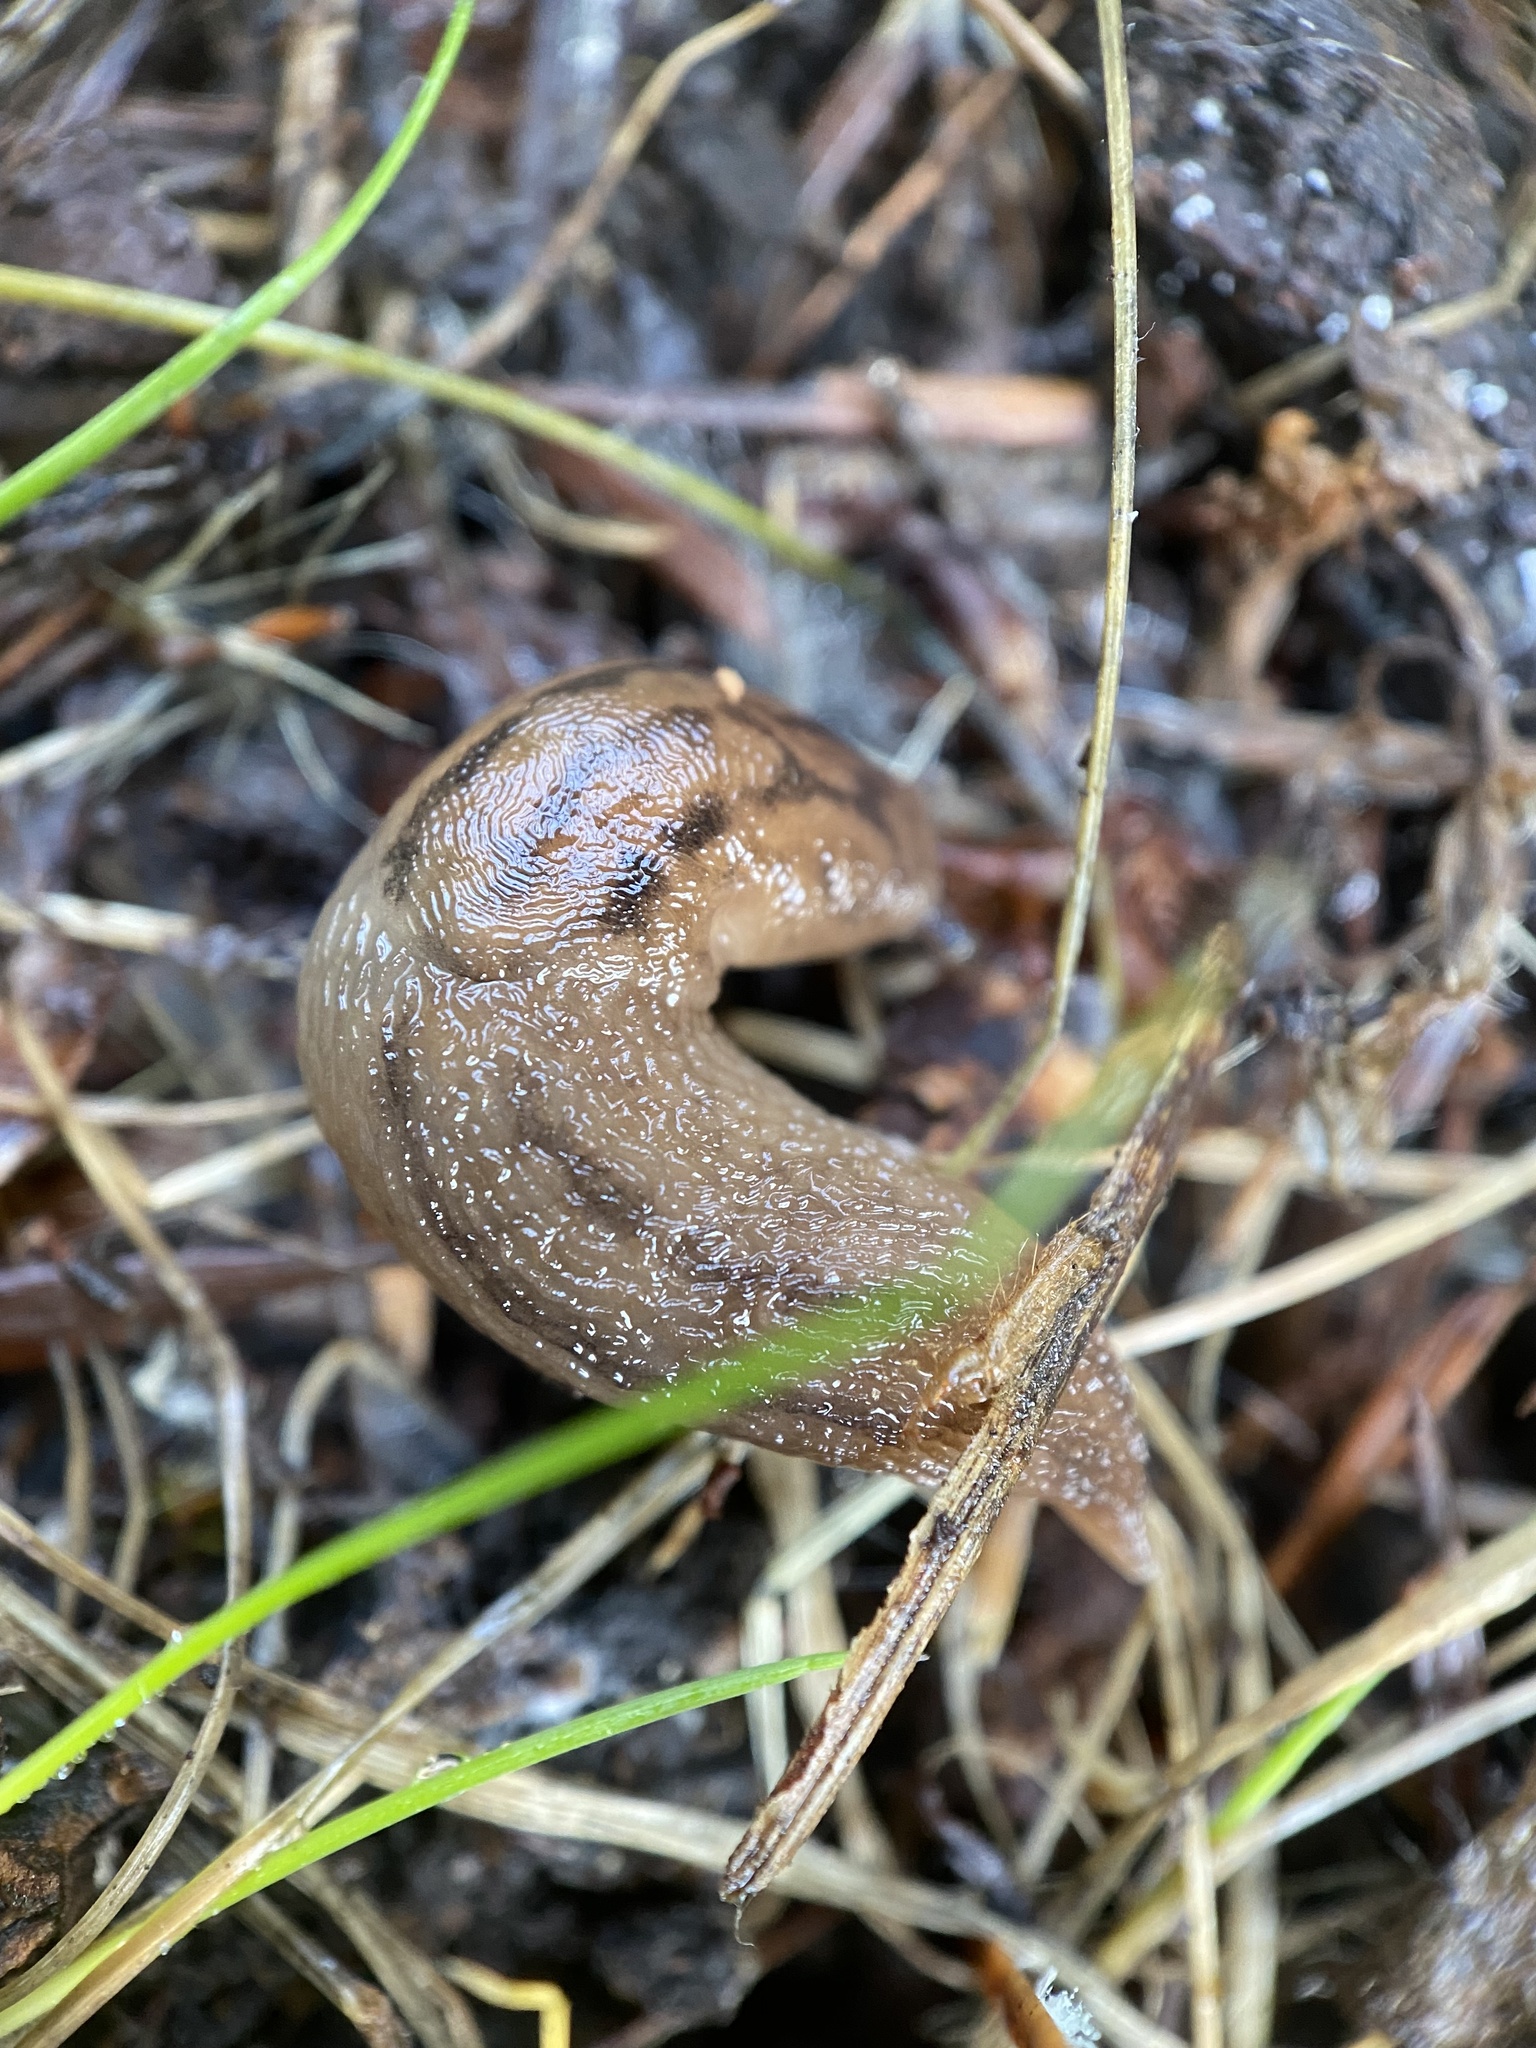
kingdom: Animalia
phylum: Mollusca
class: Gastropoda
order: Stylommatophora
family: Limacidae
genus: Ambigolimax
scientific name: Ambigolimax
